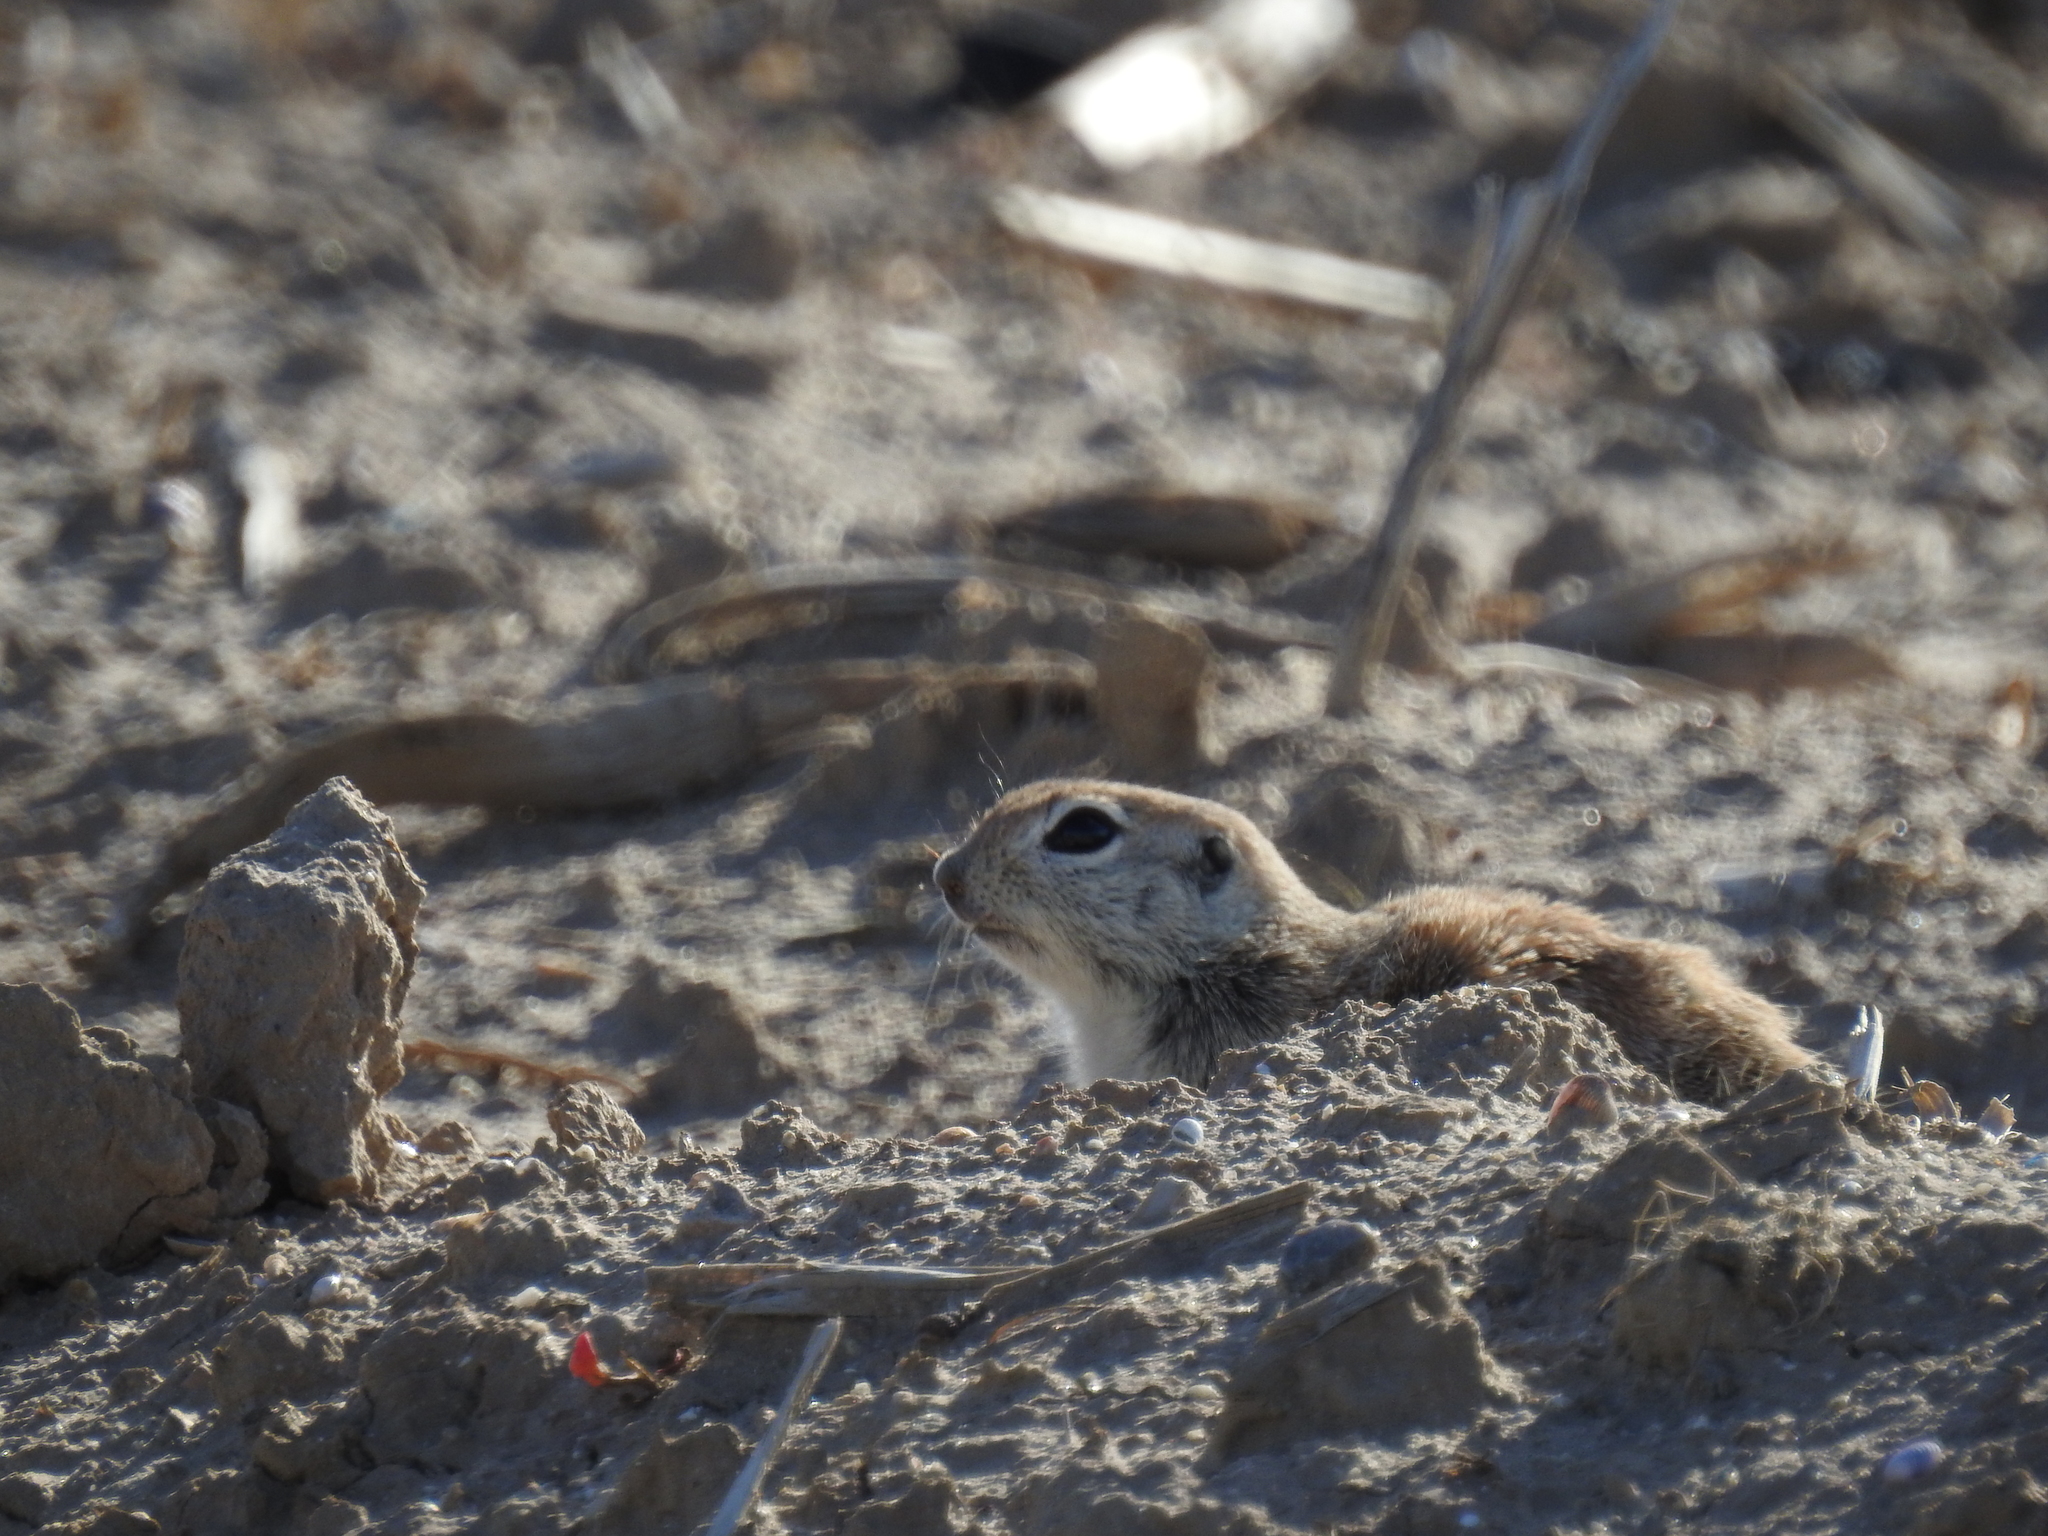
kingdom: Animalia
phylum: Chordata
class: Mammalia
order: Rodentia
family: Sciuridae
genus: Xerospermophilus
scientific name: Xerospermophilus tereticaudus
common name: Round-tailed ground squirrel
